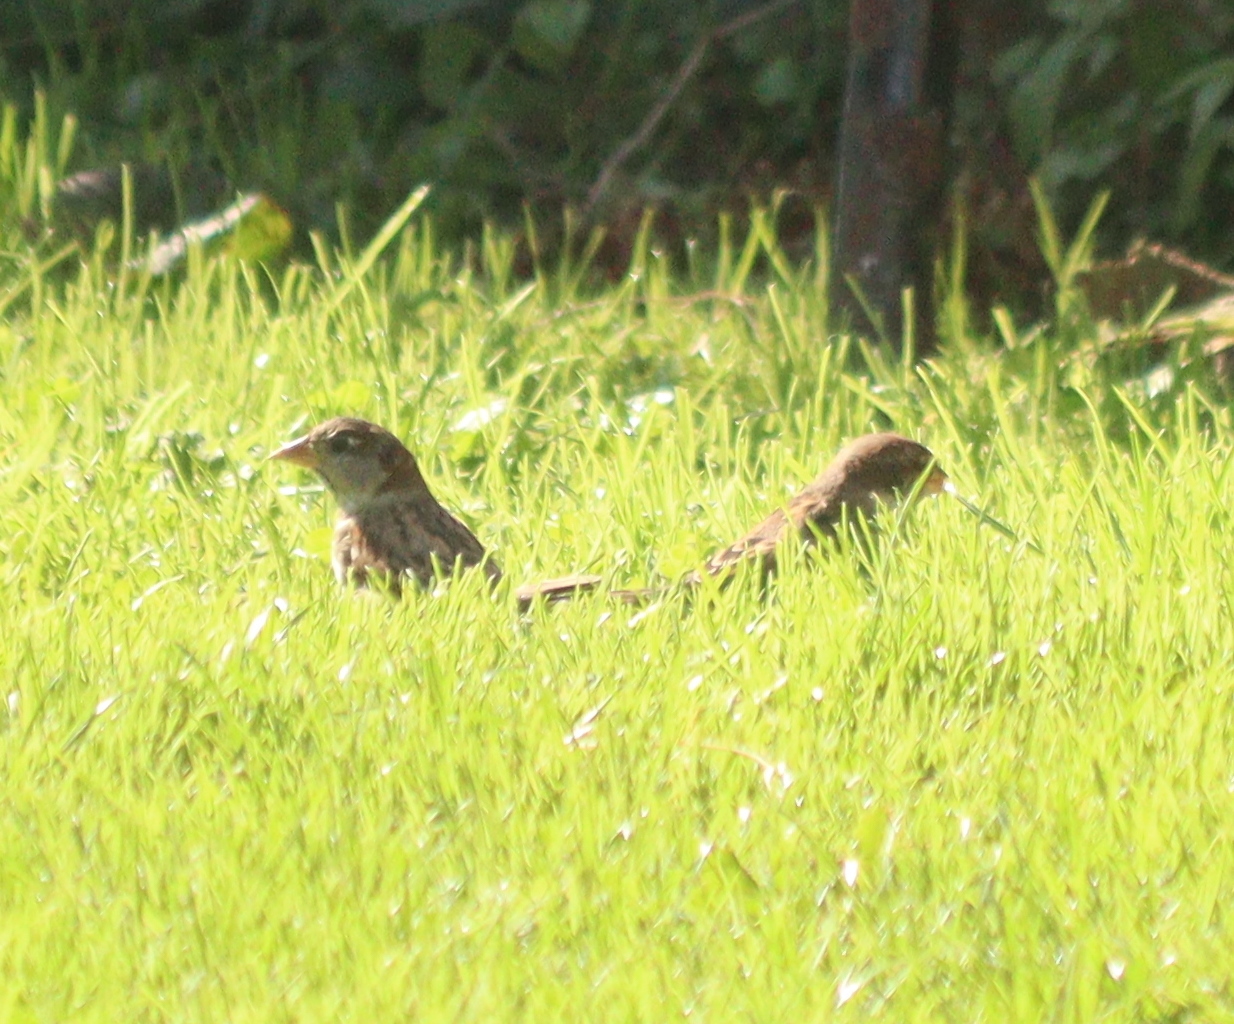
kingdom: Animalia
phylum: Chordata
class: Aves
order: Passeriformes
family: Passeridae
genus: Passer
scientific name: Passer domesticus
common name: House sparrow
